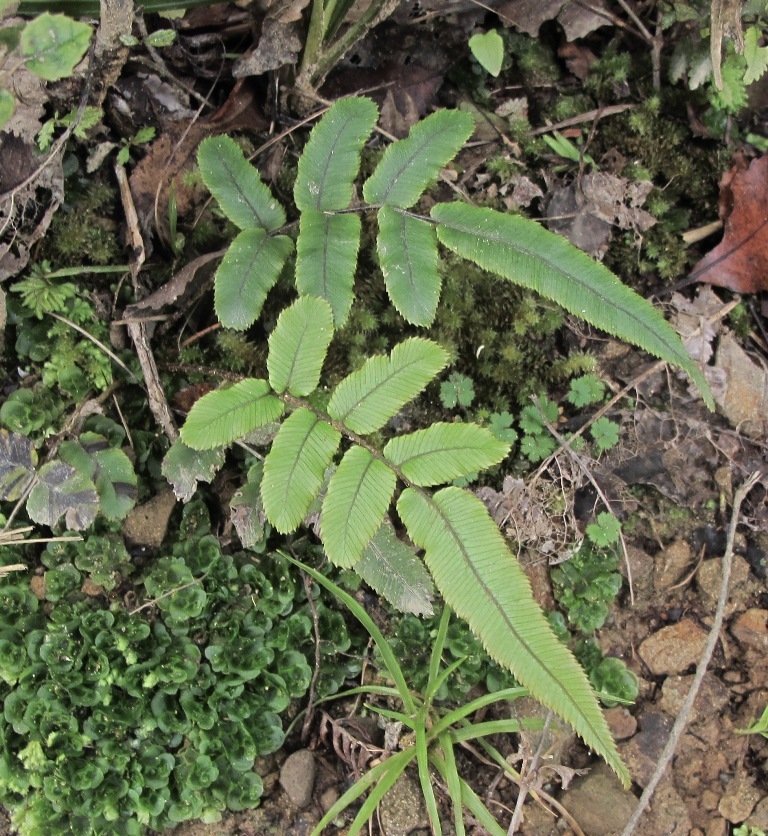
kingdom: Plantae
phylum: Tracheophyta
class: Polypodiopsida
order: Polypodiales
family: Blechnaceae
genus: Parablechnum
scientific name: Parablechnum procerum
